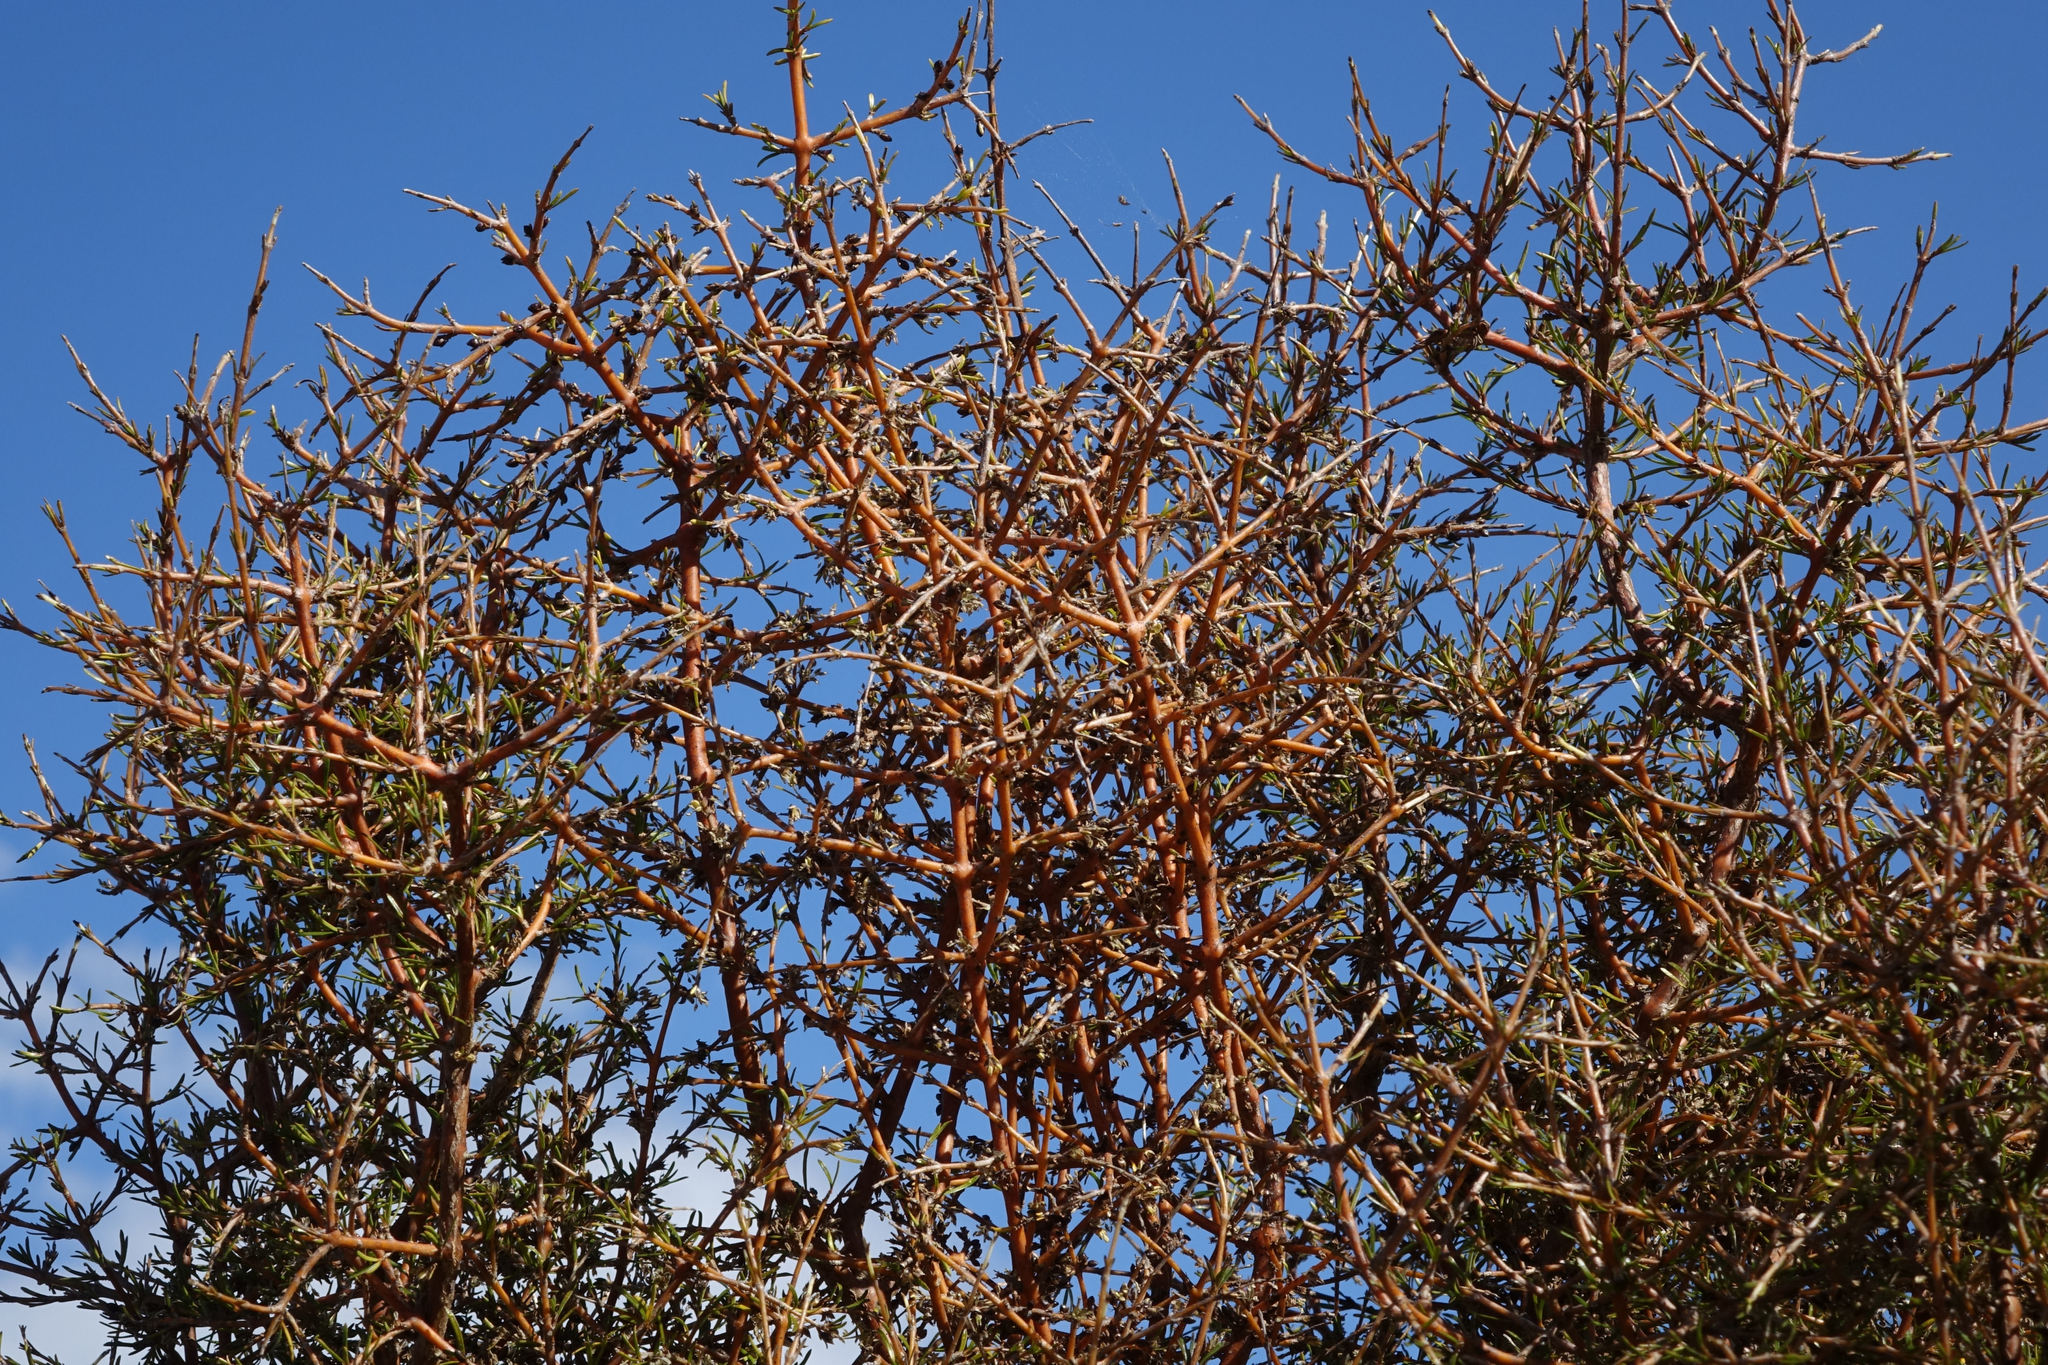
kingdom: Plantae
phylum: Tracheophyta
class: Magnoliopsida
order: Gentianales
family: Rubiaceae
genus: Coprosma
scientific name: Coprosma rugosa
